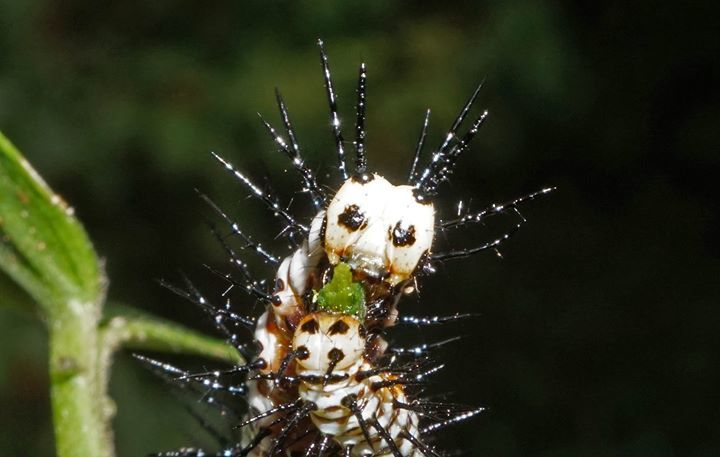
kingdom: Animalia
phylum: Arthropoda
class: Insecta
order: Lepidoptera
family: Nymphalidae
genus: Heliconius
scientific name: Heliconius charithonia
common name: Zebra long wing
